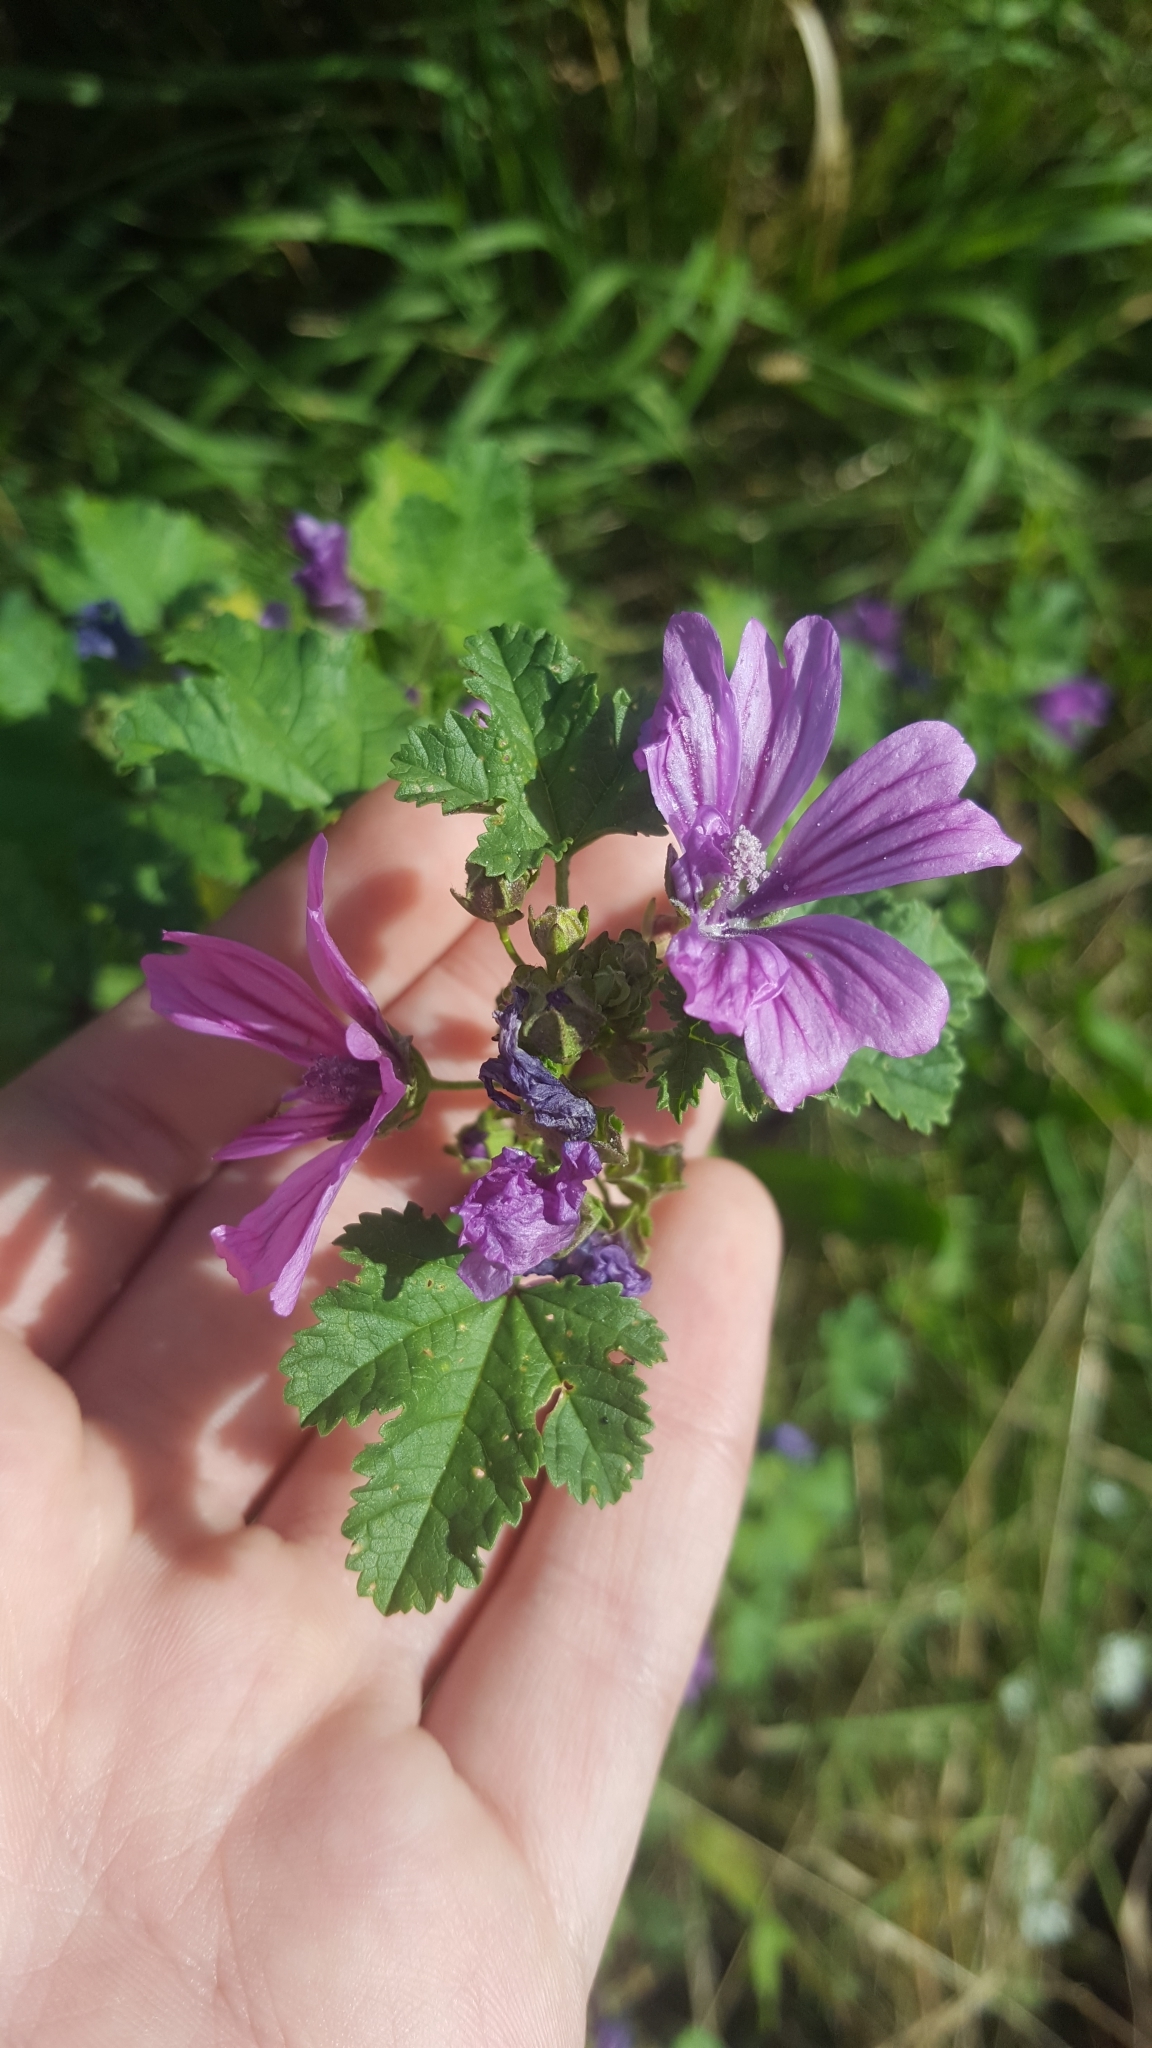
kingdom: Plantae
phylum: Tracheophyta
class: Magnoliopsida
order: Malvales
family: Malvaceae
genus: Malva
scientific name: Malva sylvestris
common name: Common mallow
